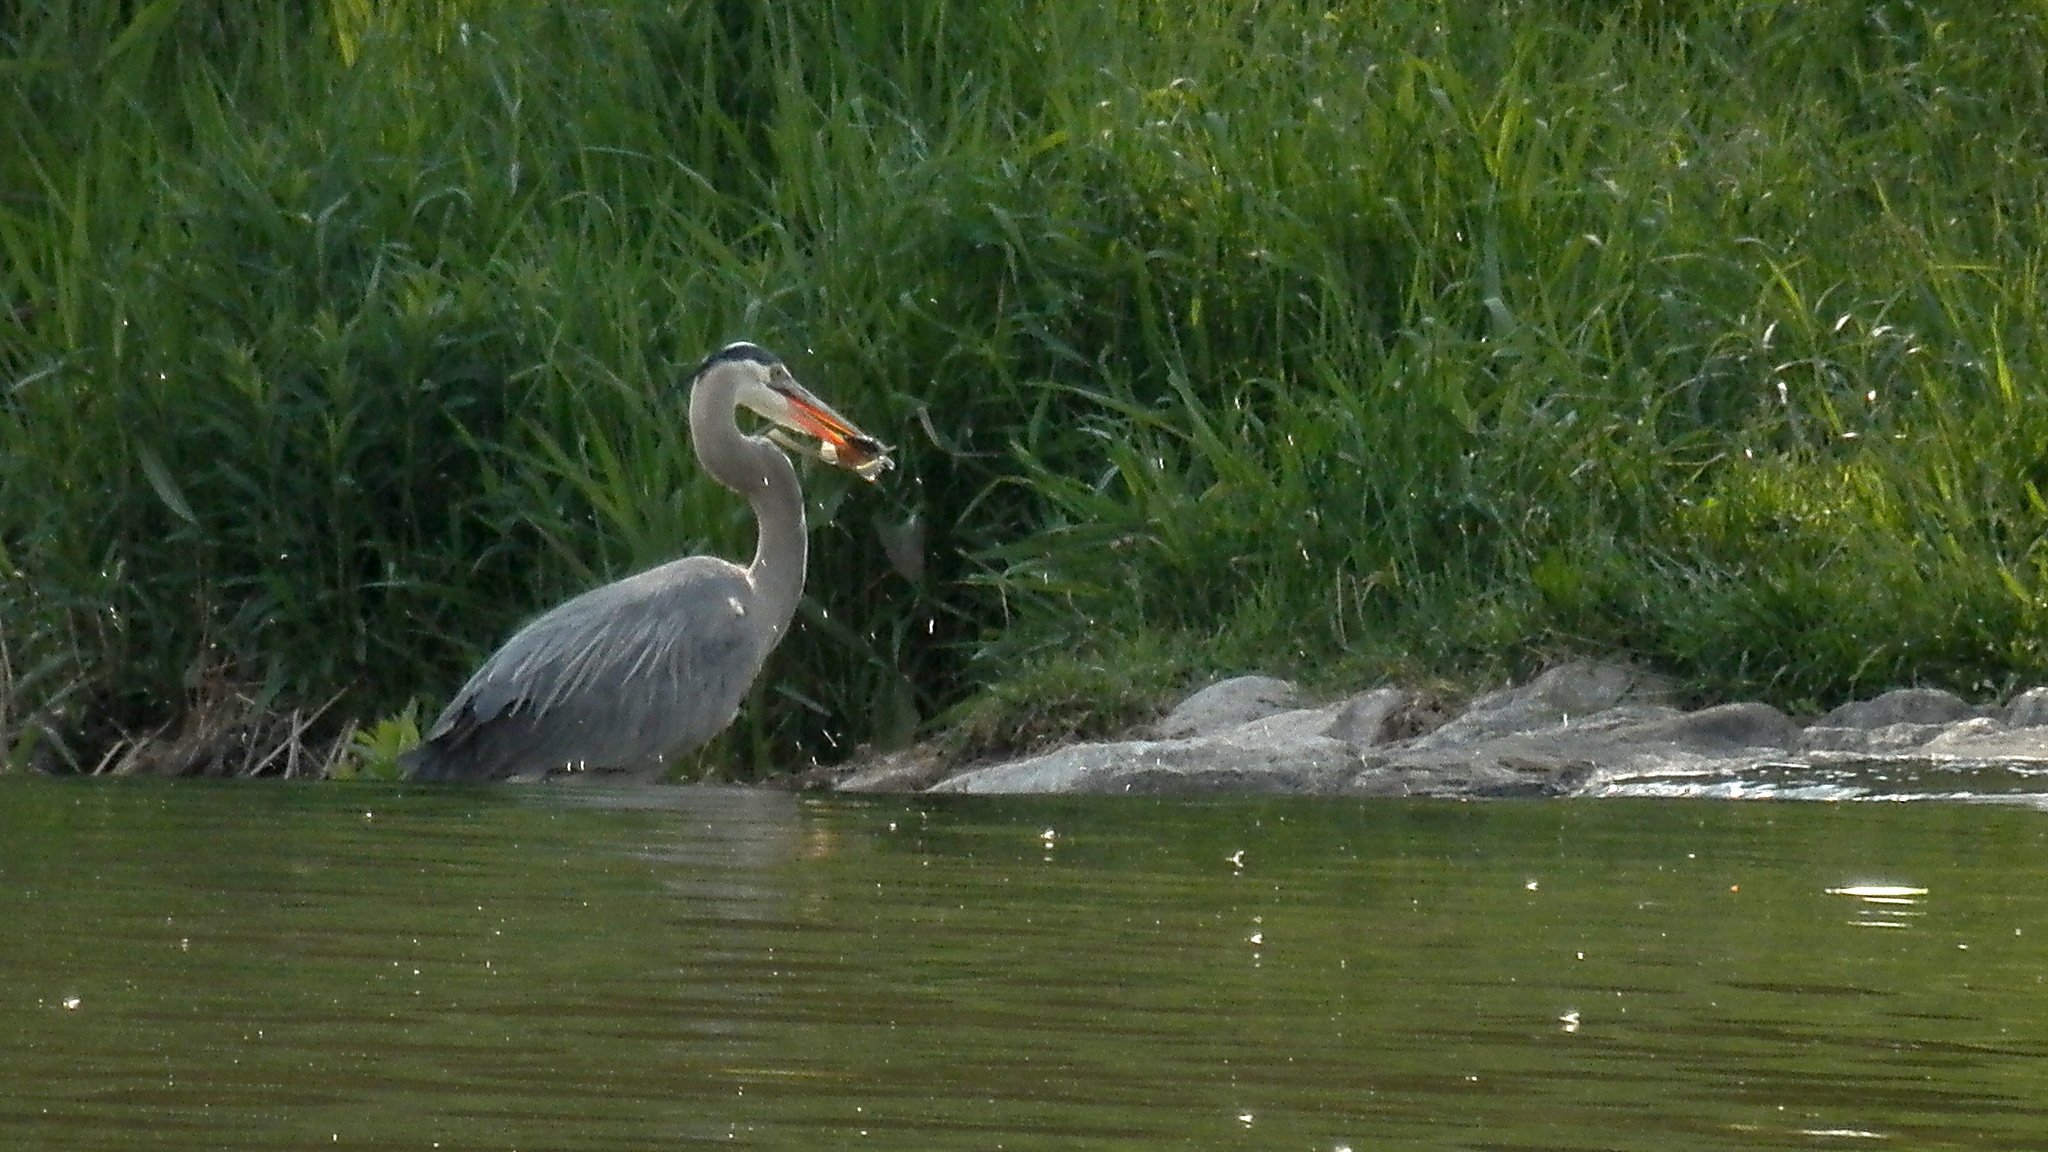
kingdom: Animalia
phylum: Chordata
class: Aves
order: Pelecaniformes
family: Ardeidae
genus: Ardea
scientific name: Ardea herodias
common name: Great blue heron
